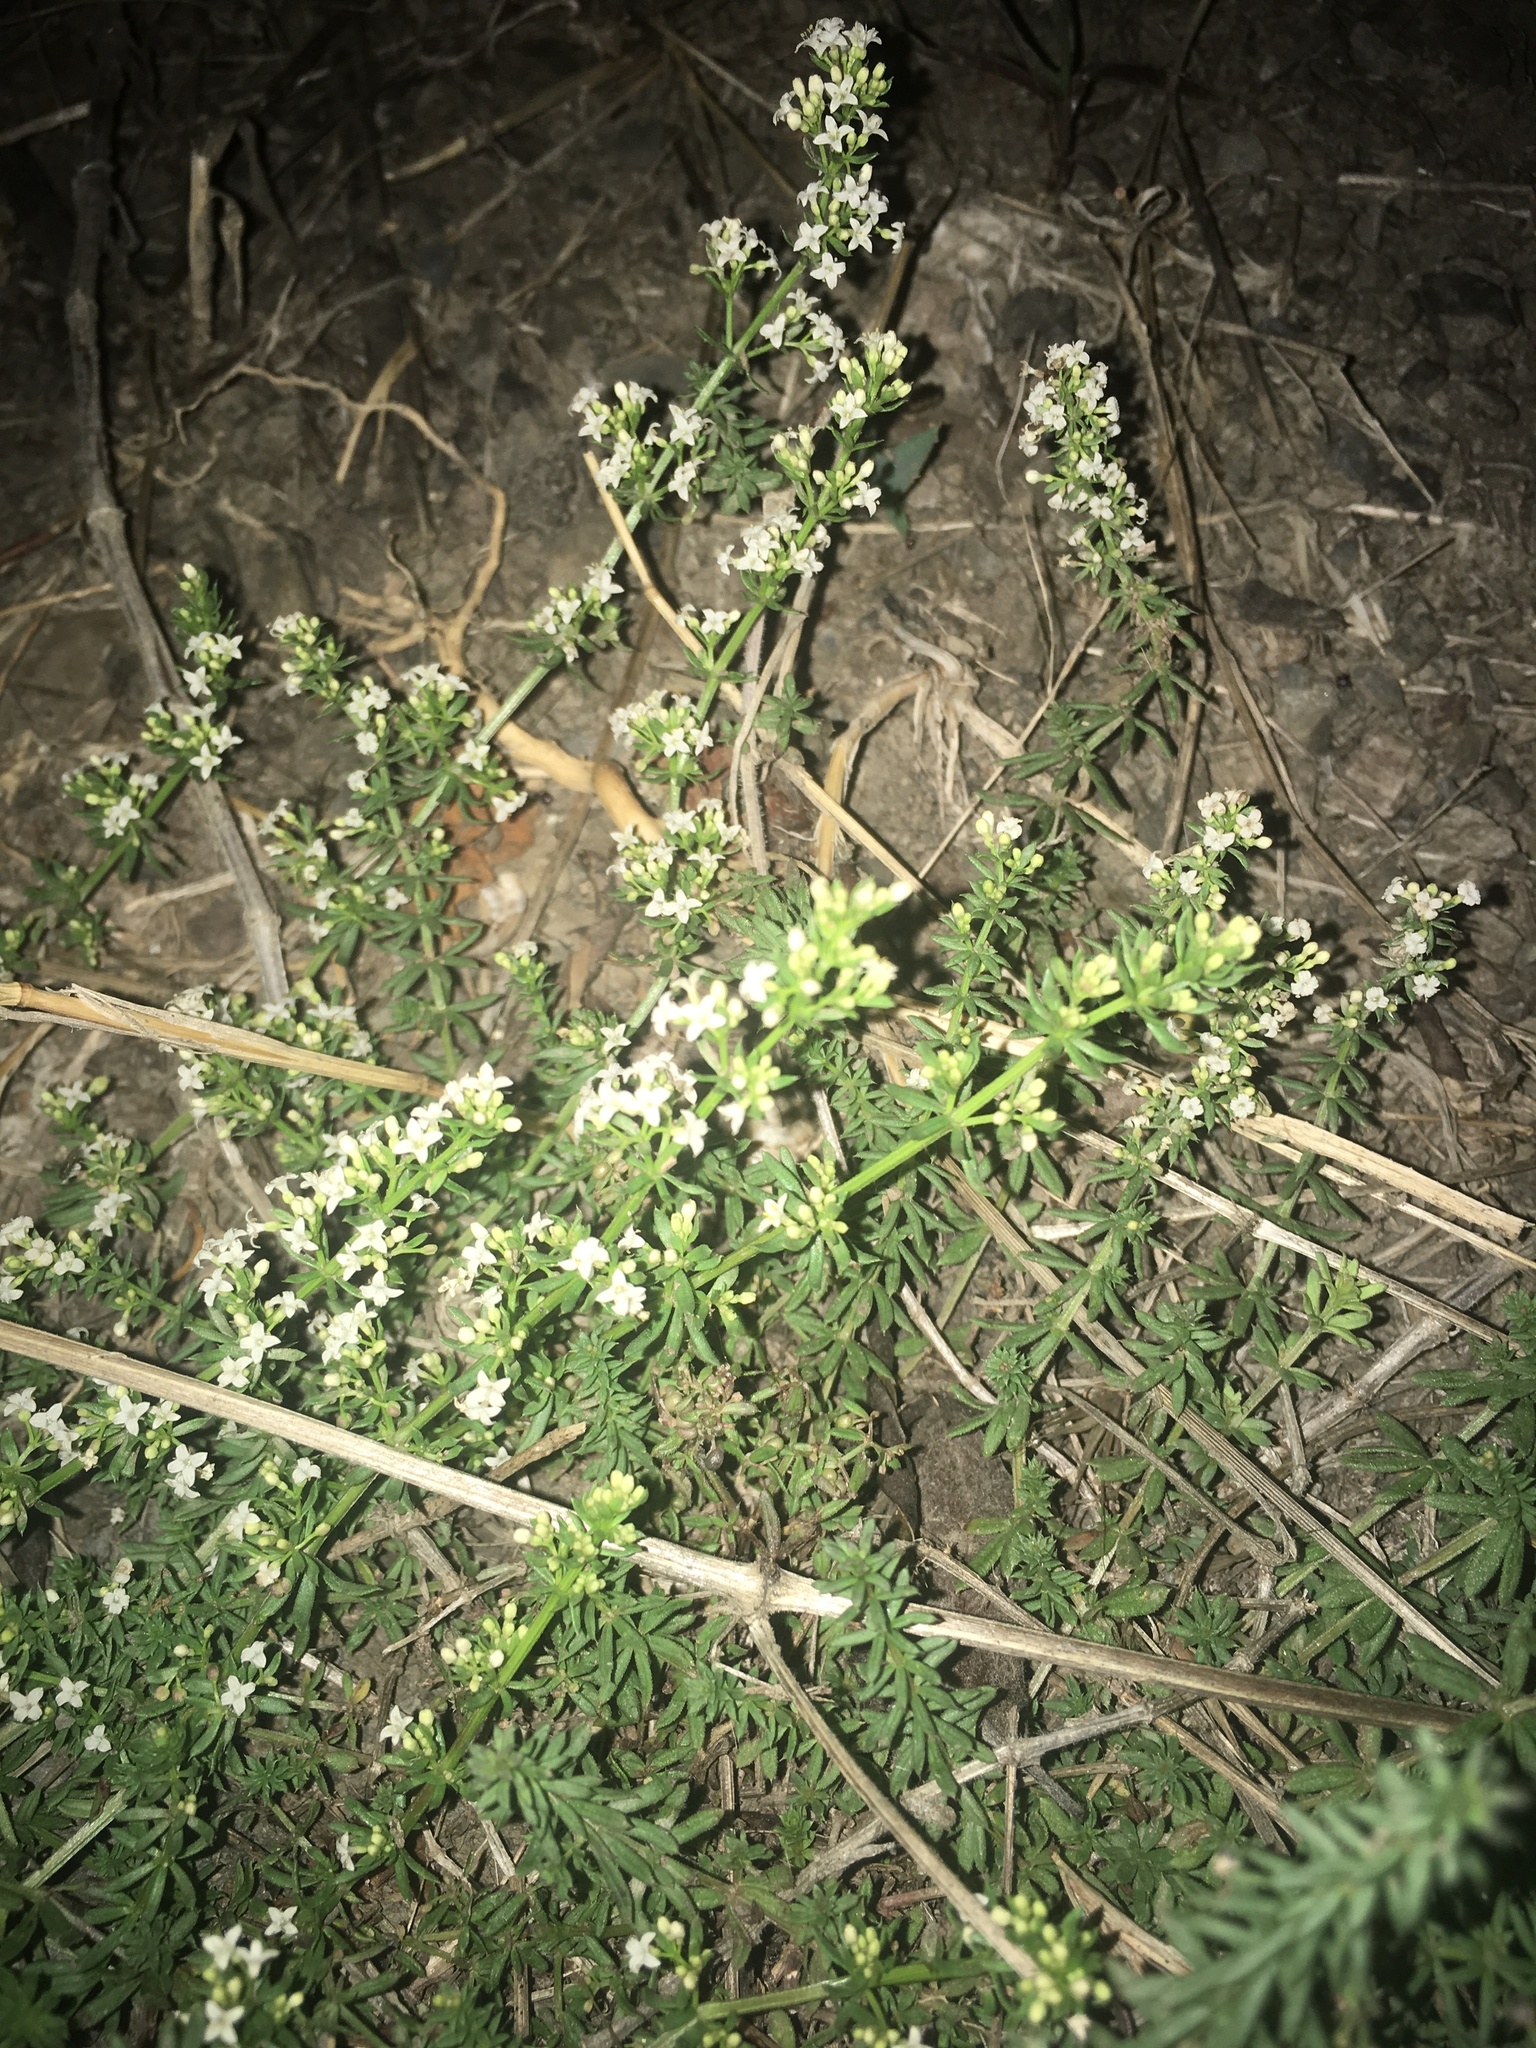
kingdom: Plantae
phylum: Tracheophyta
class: Magnoliopsida
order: Gentianales
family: Rubiaceae
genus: Galium
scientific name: Galium humifusum
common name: Spreading bedstraw
